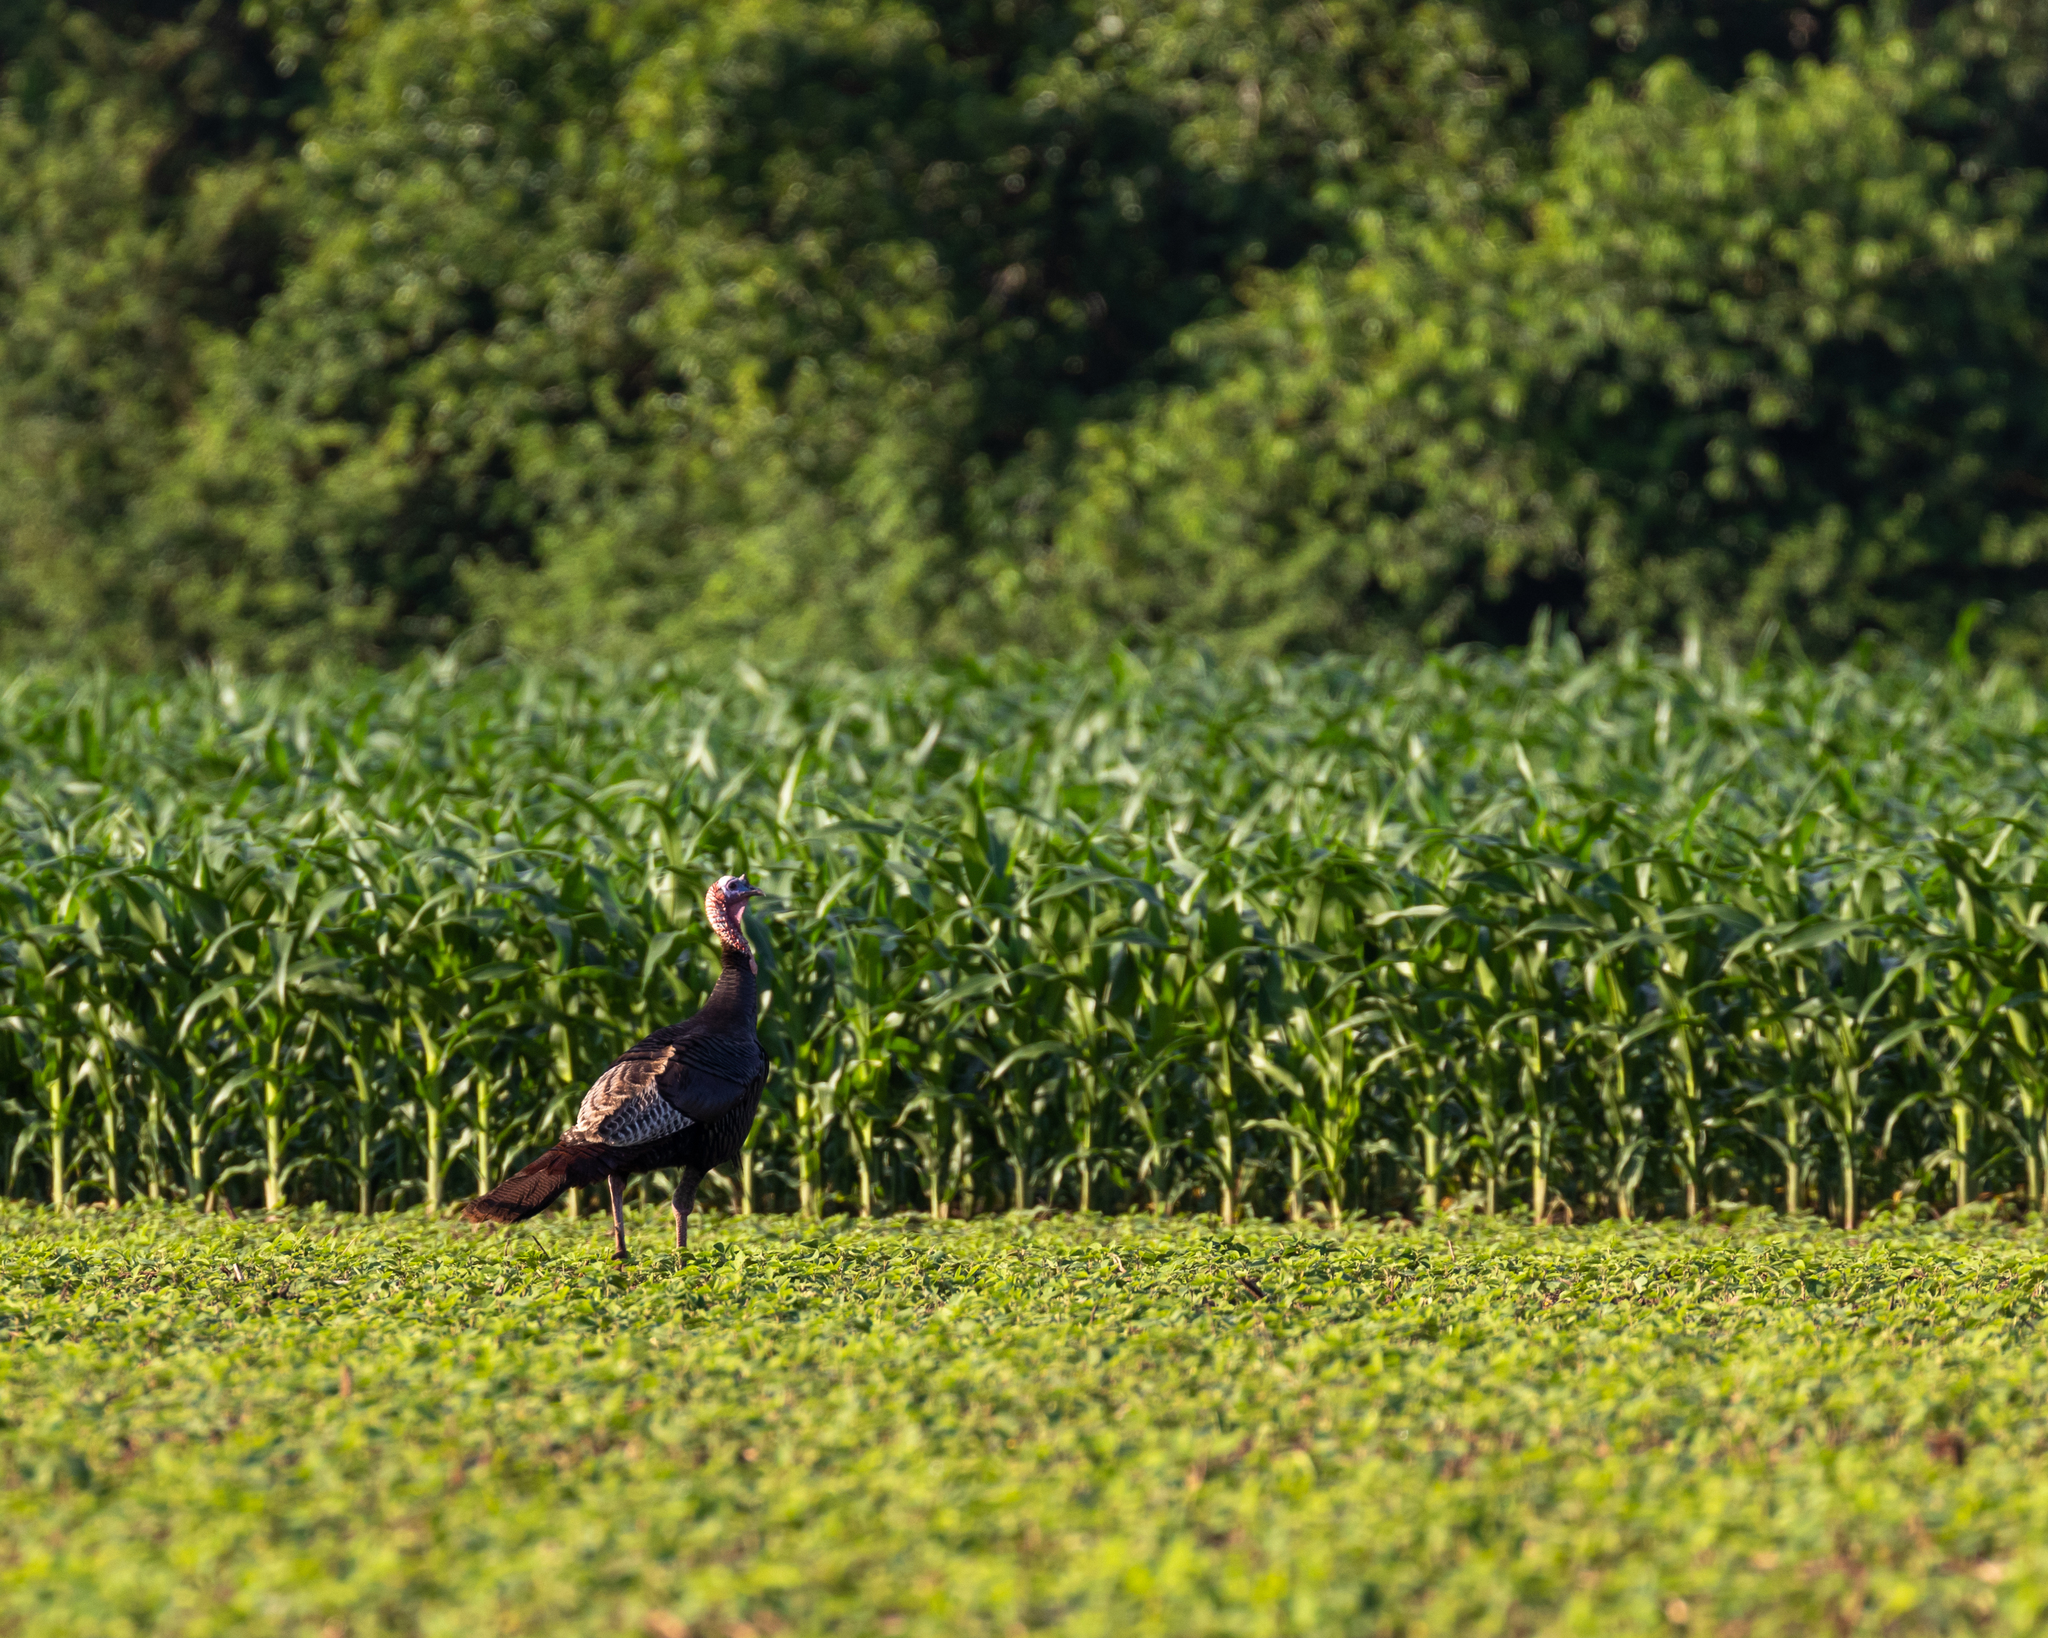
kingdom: Animalia
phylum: Chordata
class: Aves
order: Galliformes
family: Phasianidae
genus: Meleagris
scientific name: Meleagris gallopavo
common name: Wild turkey
